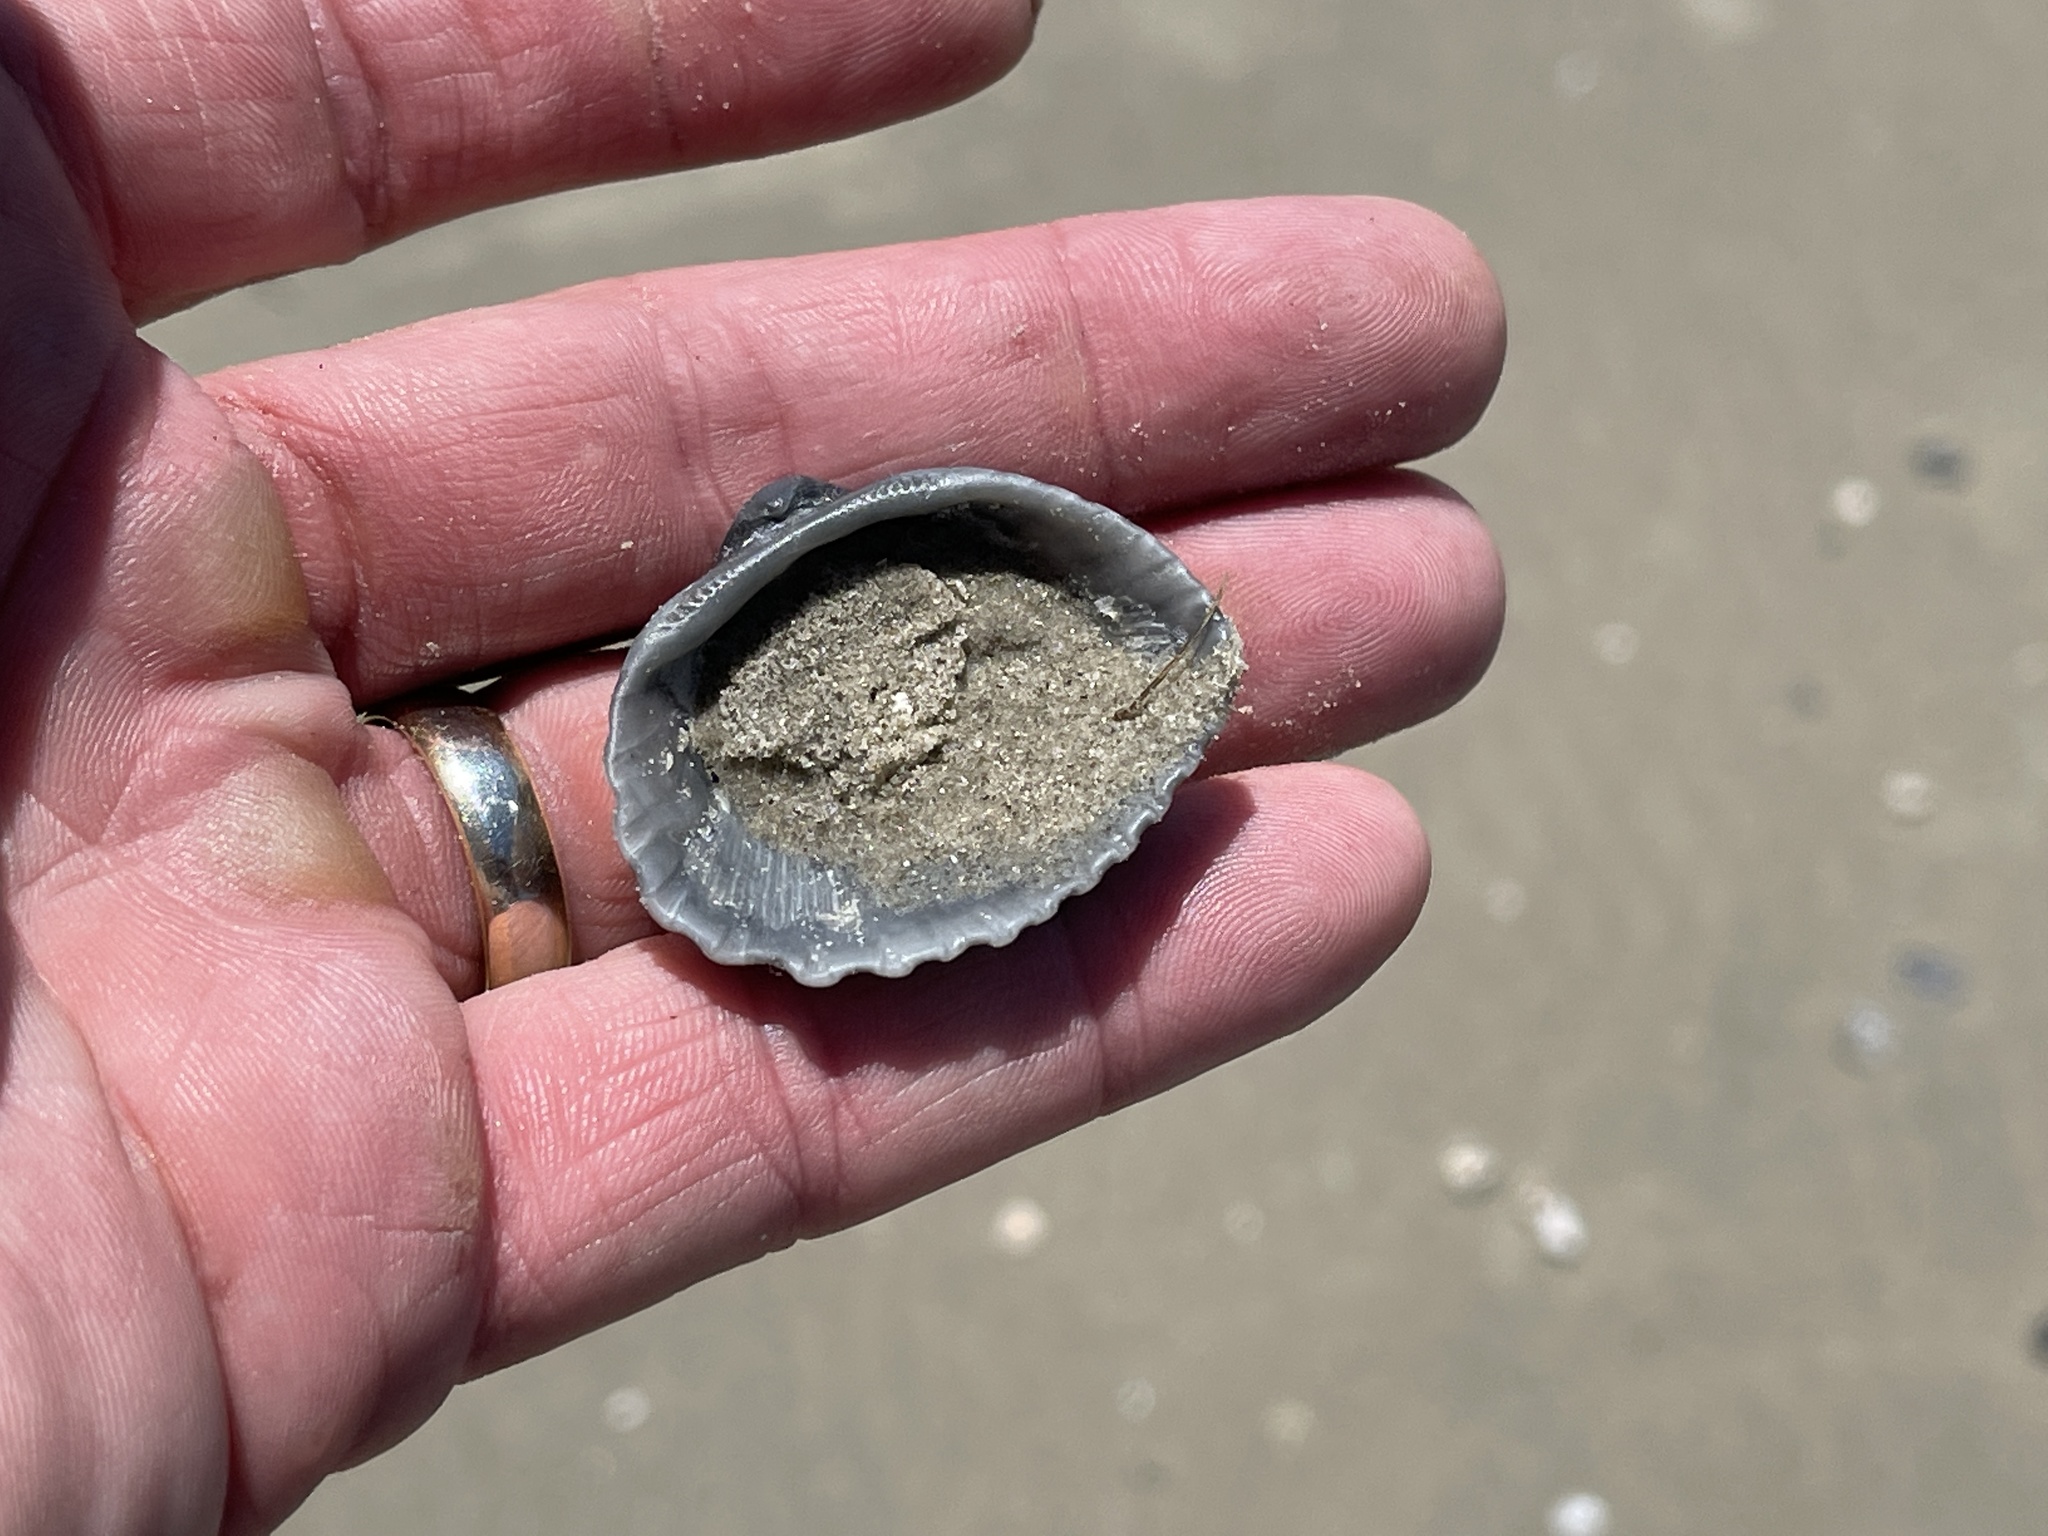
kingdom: Animalia
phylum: Mollusca
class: Bivalvia
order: Arcida
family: Arcidae
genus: Anadara
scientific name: Anadara brasiliana
